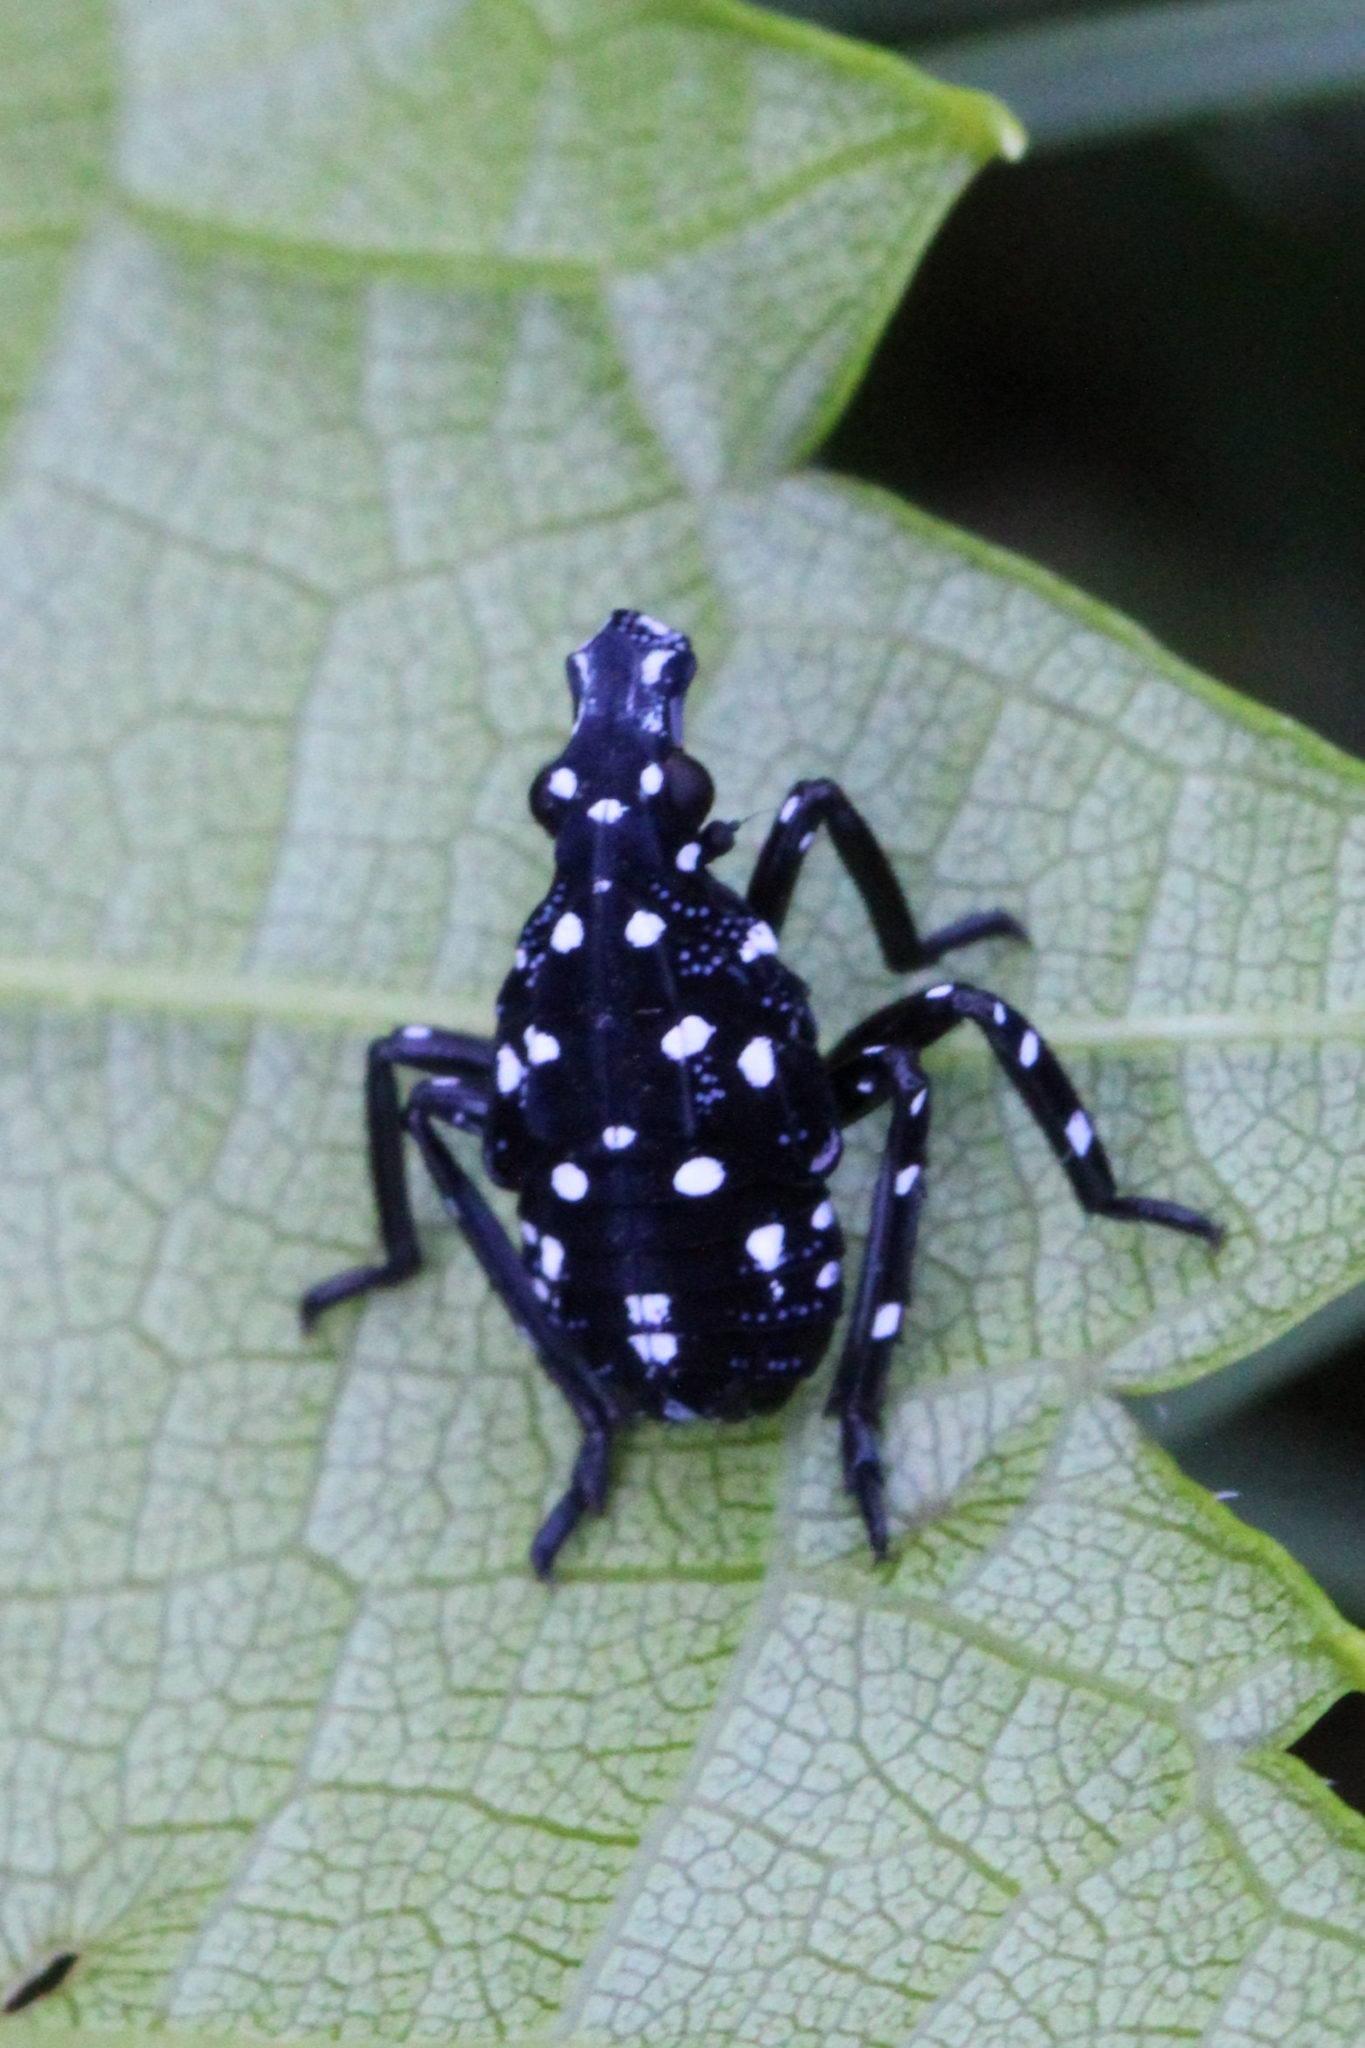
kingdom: Animalia
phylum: Arthropoda
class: Insecta
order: Hemiptera
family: Fulgoridae
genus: Lycorma
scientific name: Lycorma delicatula
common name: Spotted lanternfly
